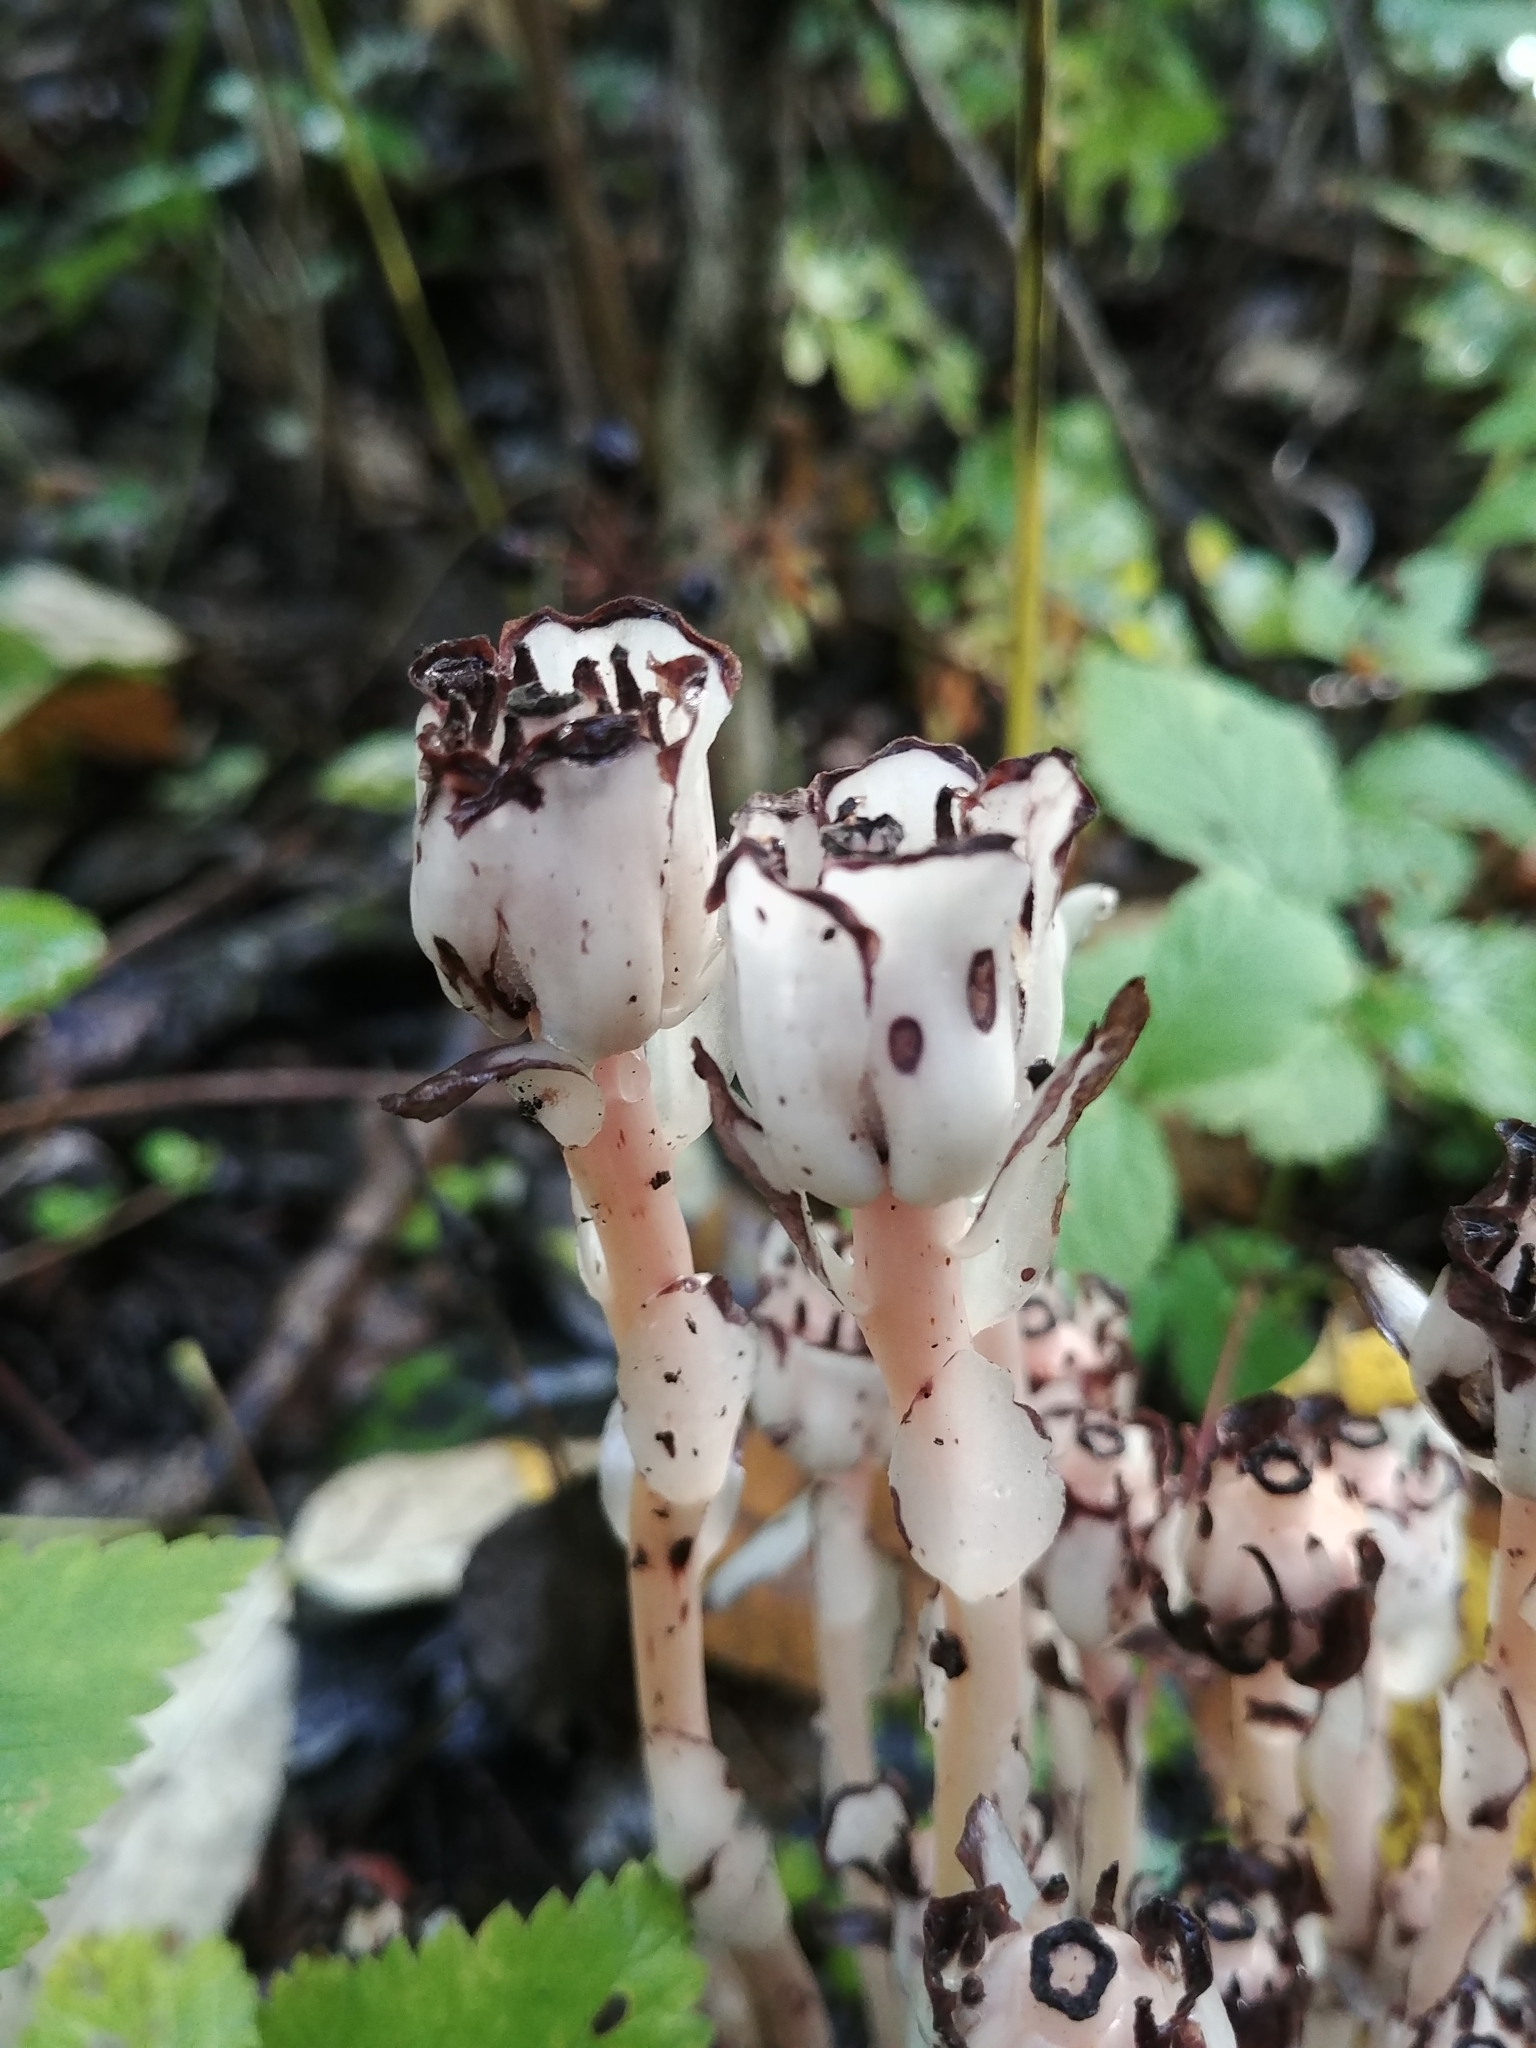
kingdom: Plantae
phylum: Tracheophyta
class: Magnoliopsida
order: Ericales
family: Ericaceae
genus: Monotropa
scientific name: Monotropa uniflora
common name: Convulsion root
